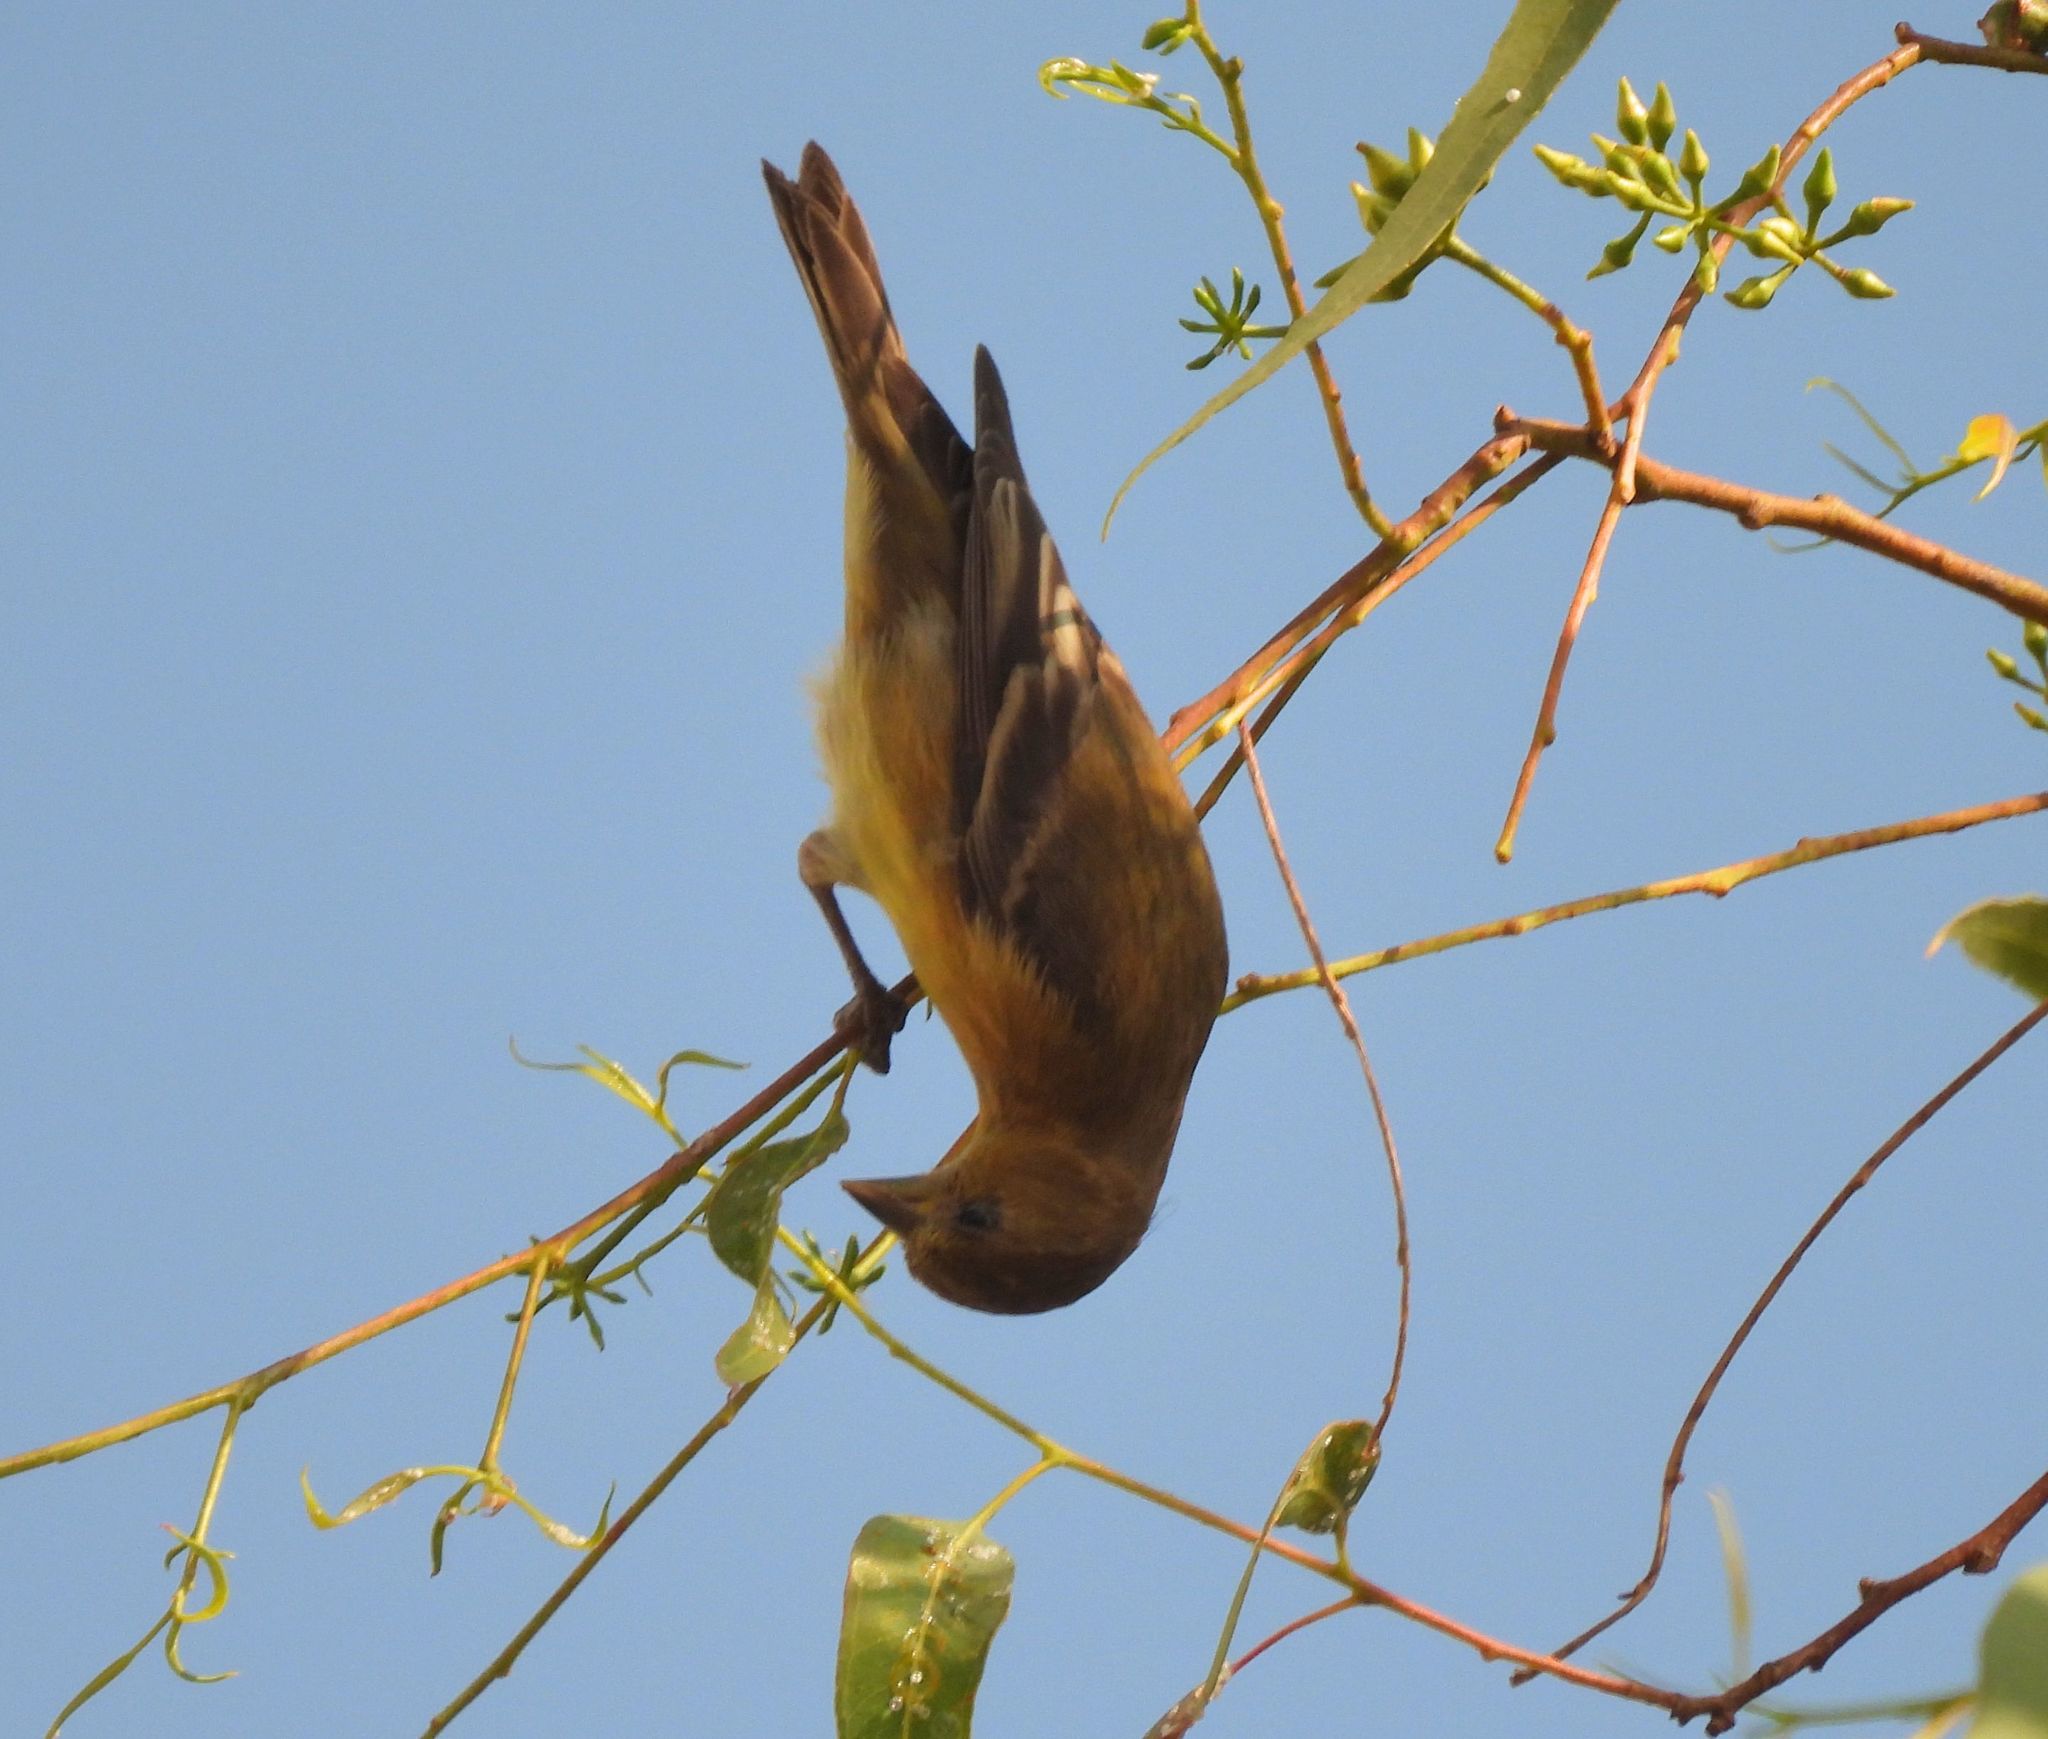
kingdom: Animalia
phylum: Chordata
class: Aves
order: Passeriformes
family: Fringillidae
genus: Spinus
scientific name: Spinus psaltria
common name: Lesser goldfinch
